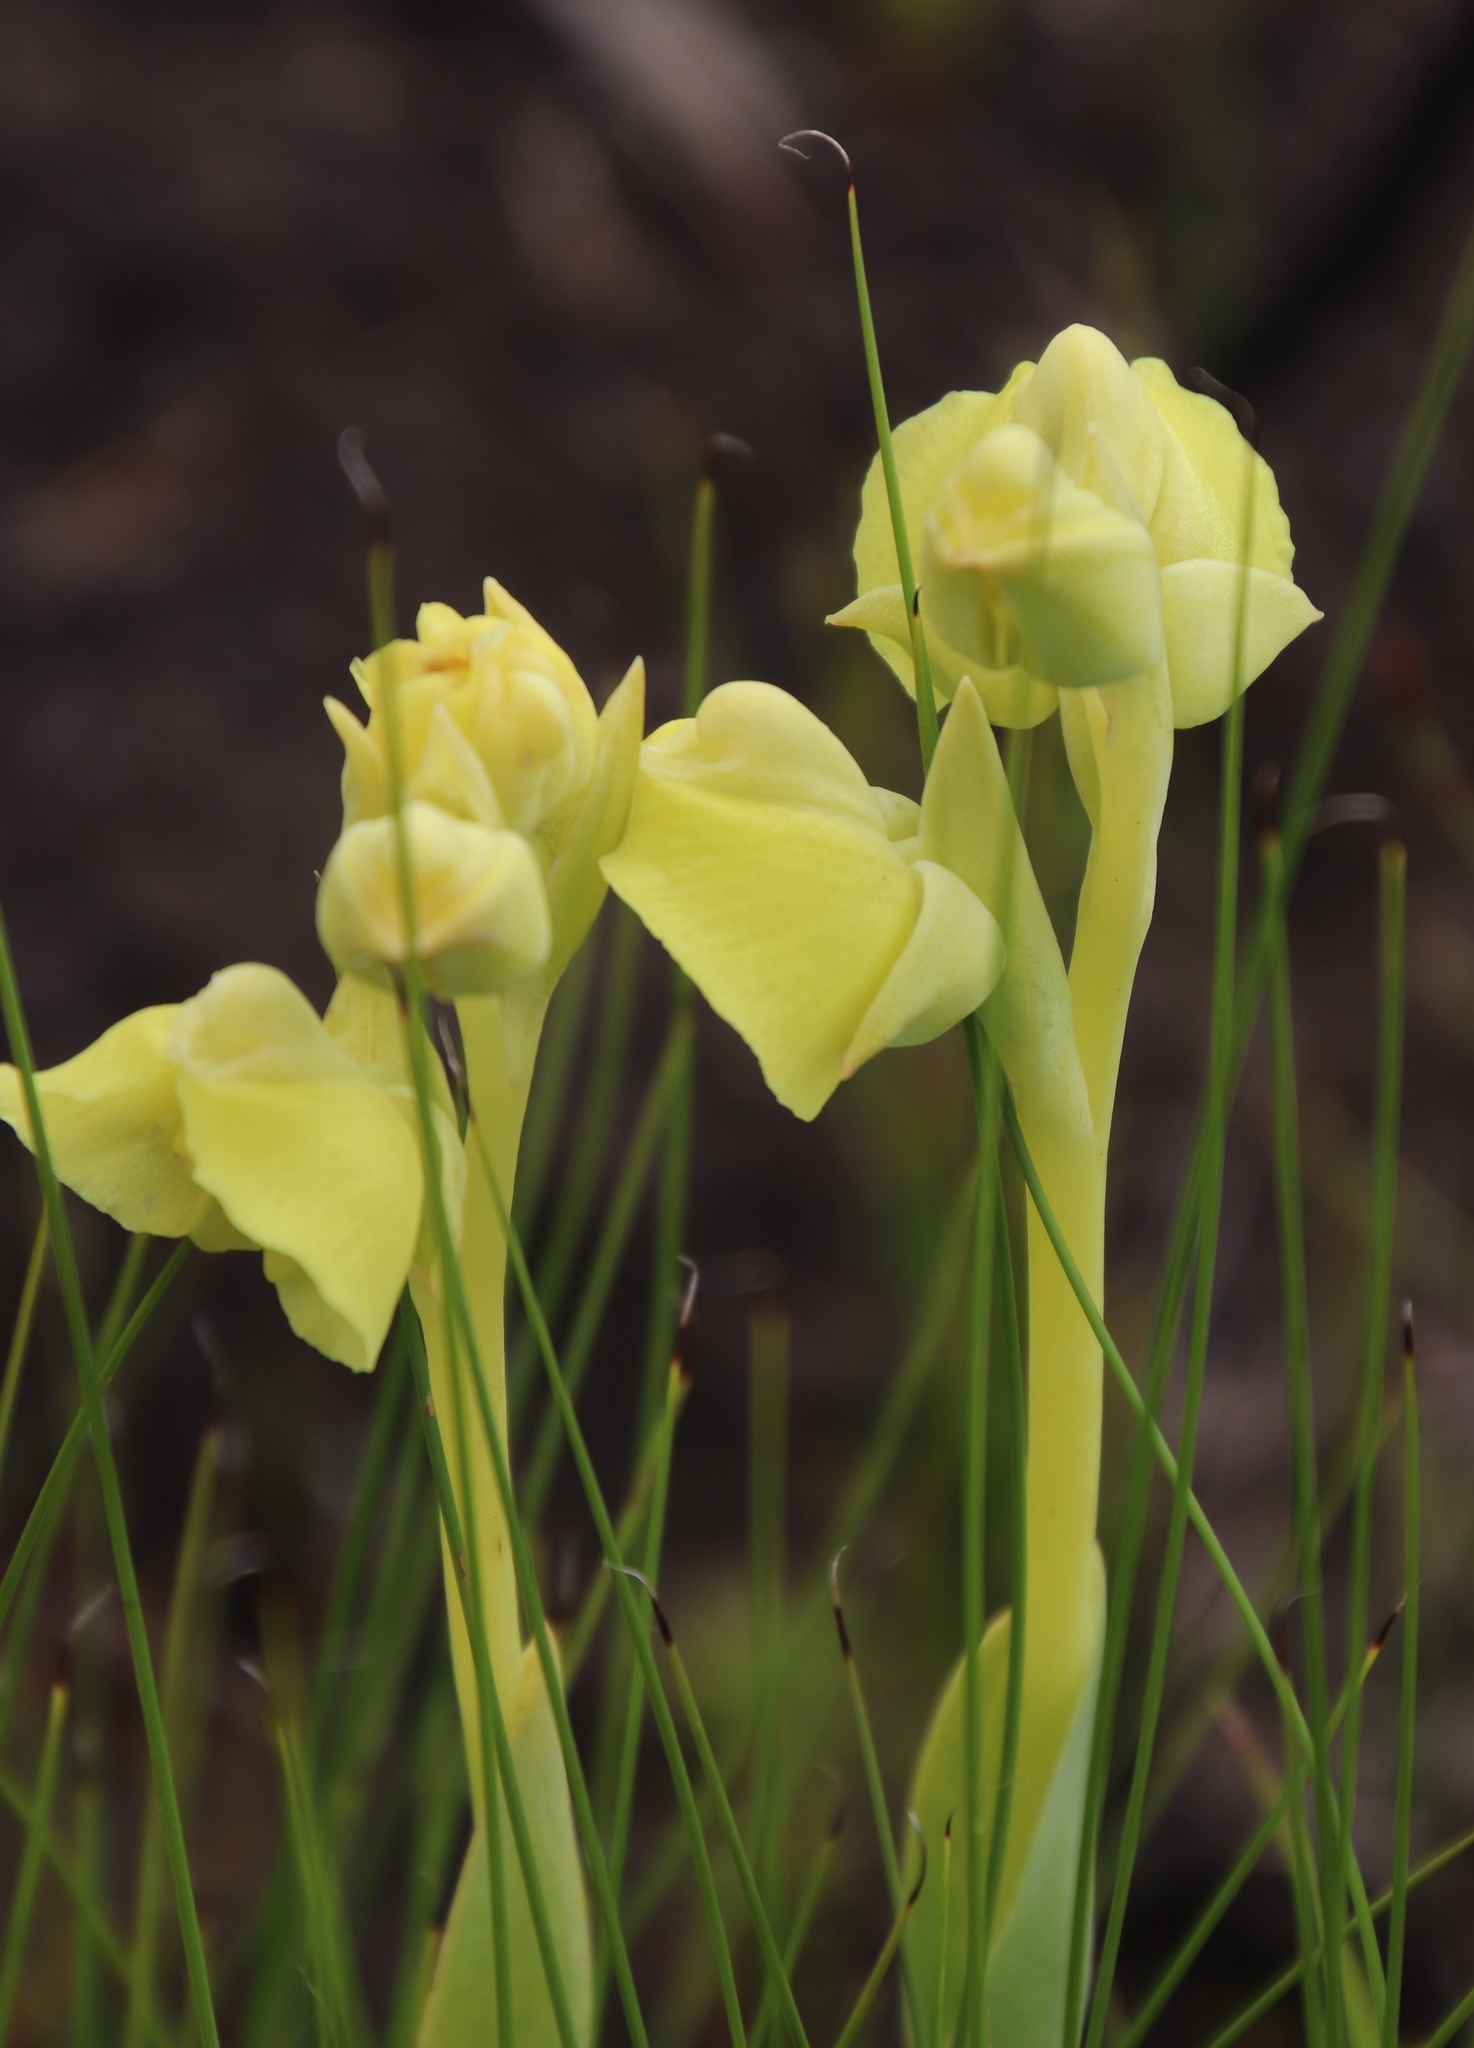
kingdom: Plantae
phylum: Tracheophyta
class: Liliopsida
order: Asparagales
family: Orchidaceae
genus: Pterygodium
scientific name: Pterygodium catholicum
